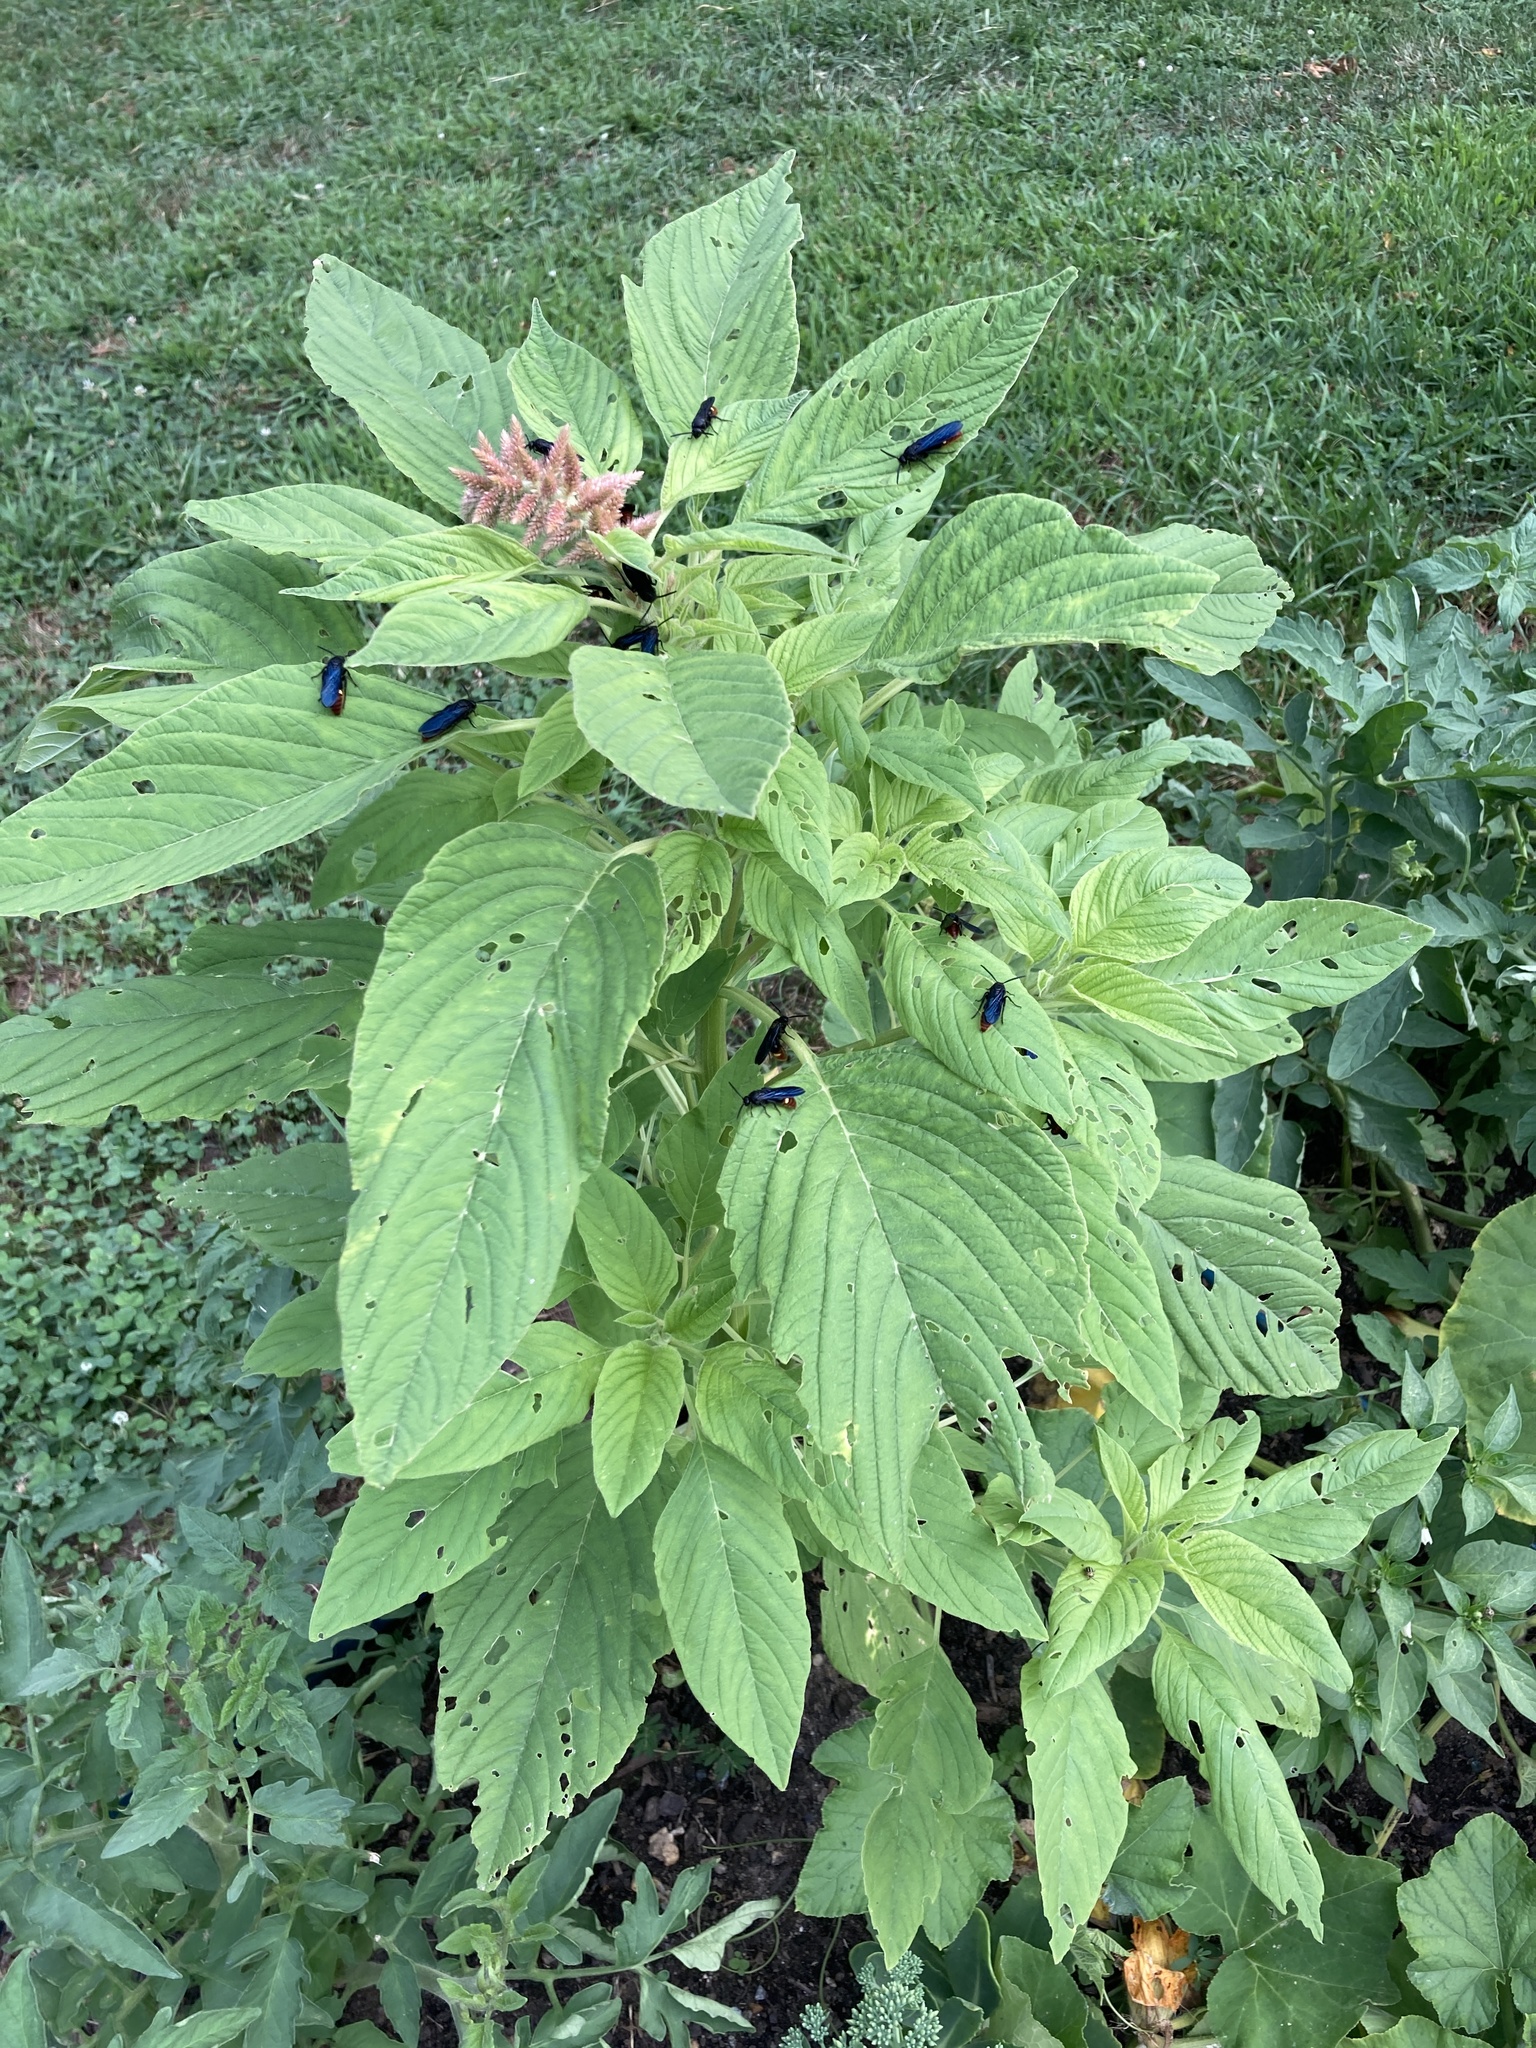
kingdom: Animalia
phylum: Arthropoda
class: Insecta
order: Hymenoptera
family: Scoliidae
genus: Scolia
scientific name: Scolia dubia
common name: Blue-winged scoliid wasp
